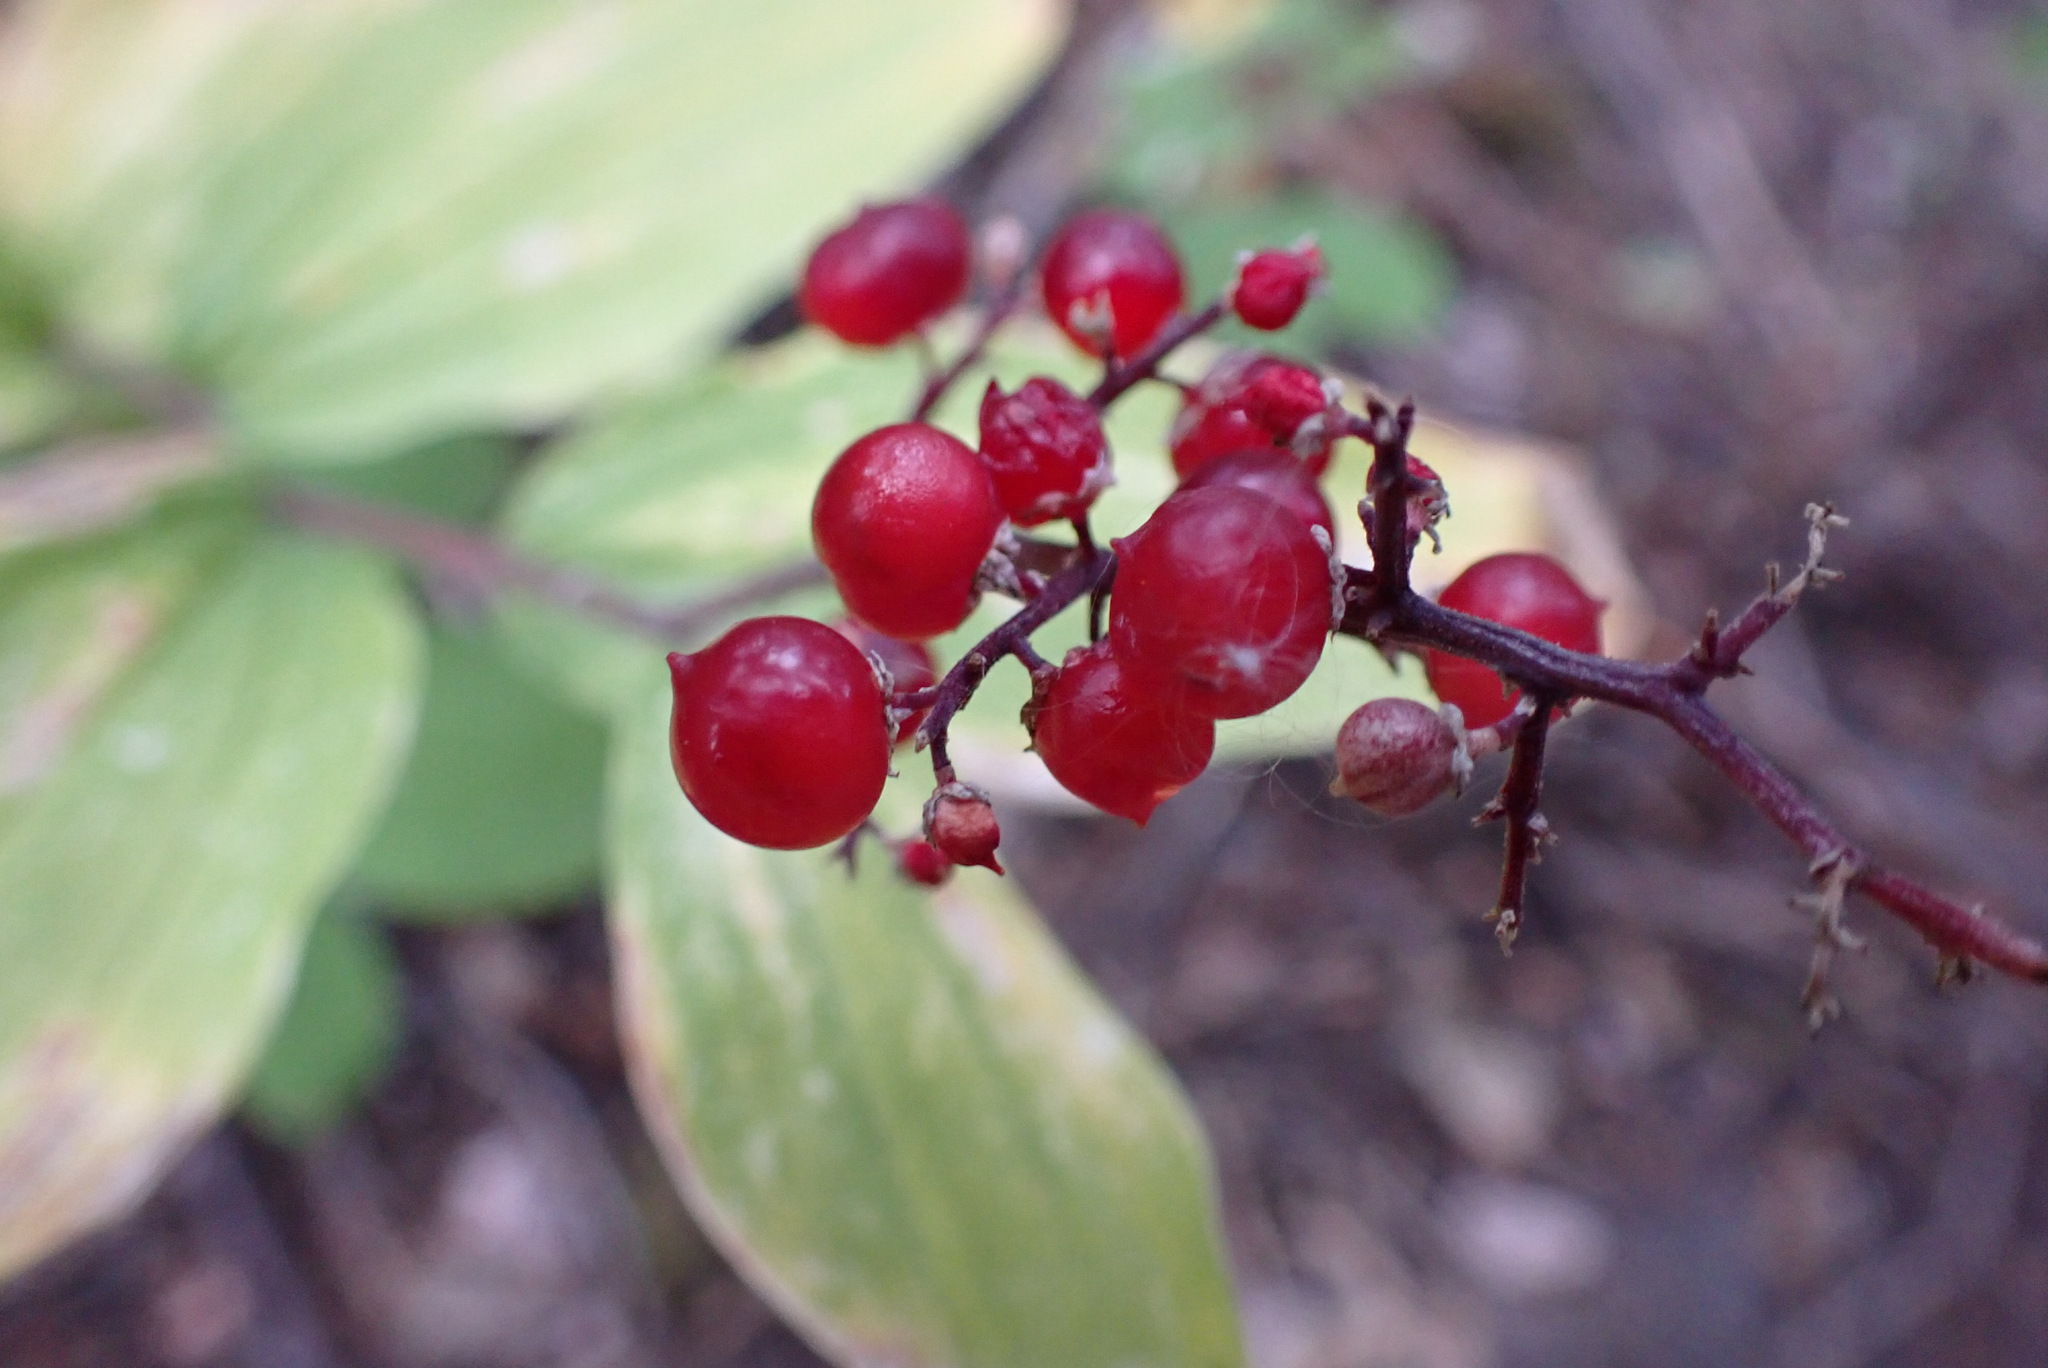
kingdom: Plantae
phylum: Tracheophyta
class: Liliopsida
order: Asparagales
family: Asparagaceae
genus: Maianthemum
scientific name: Maianthemum racemosum
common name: False spikenard
